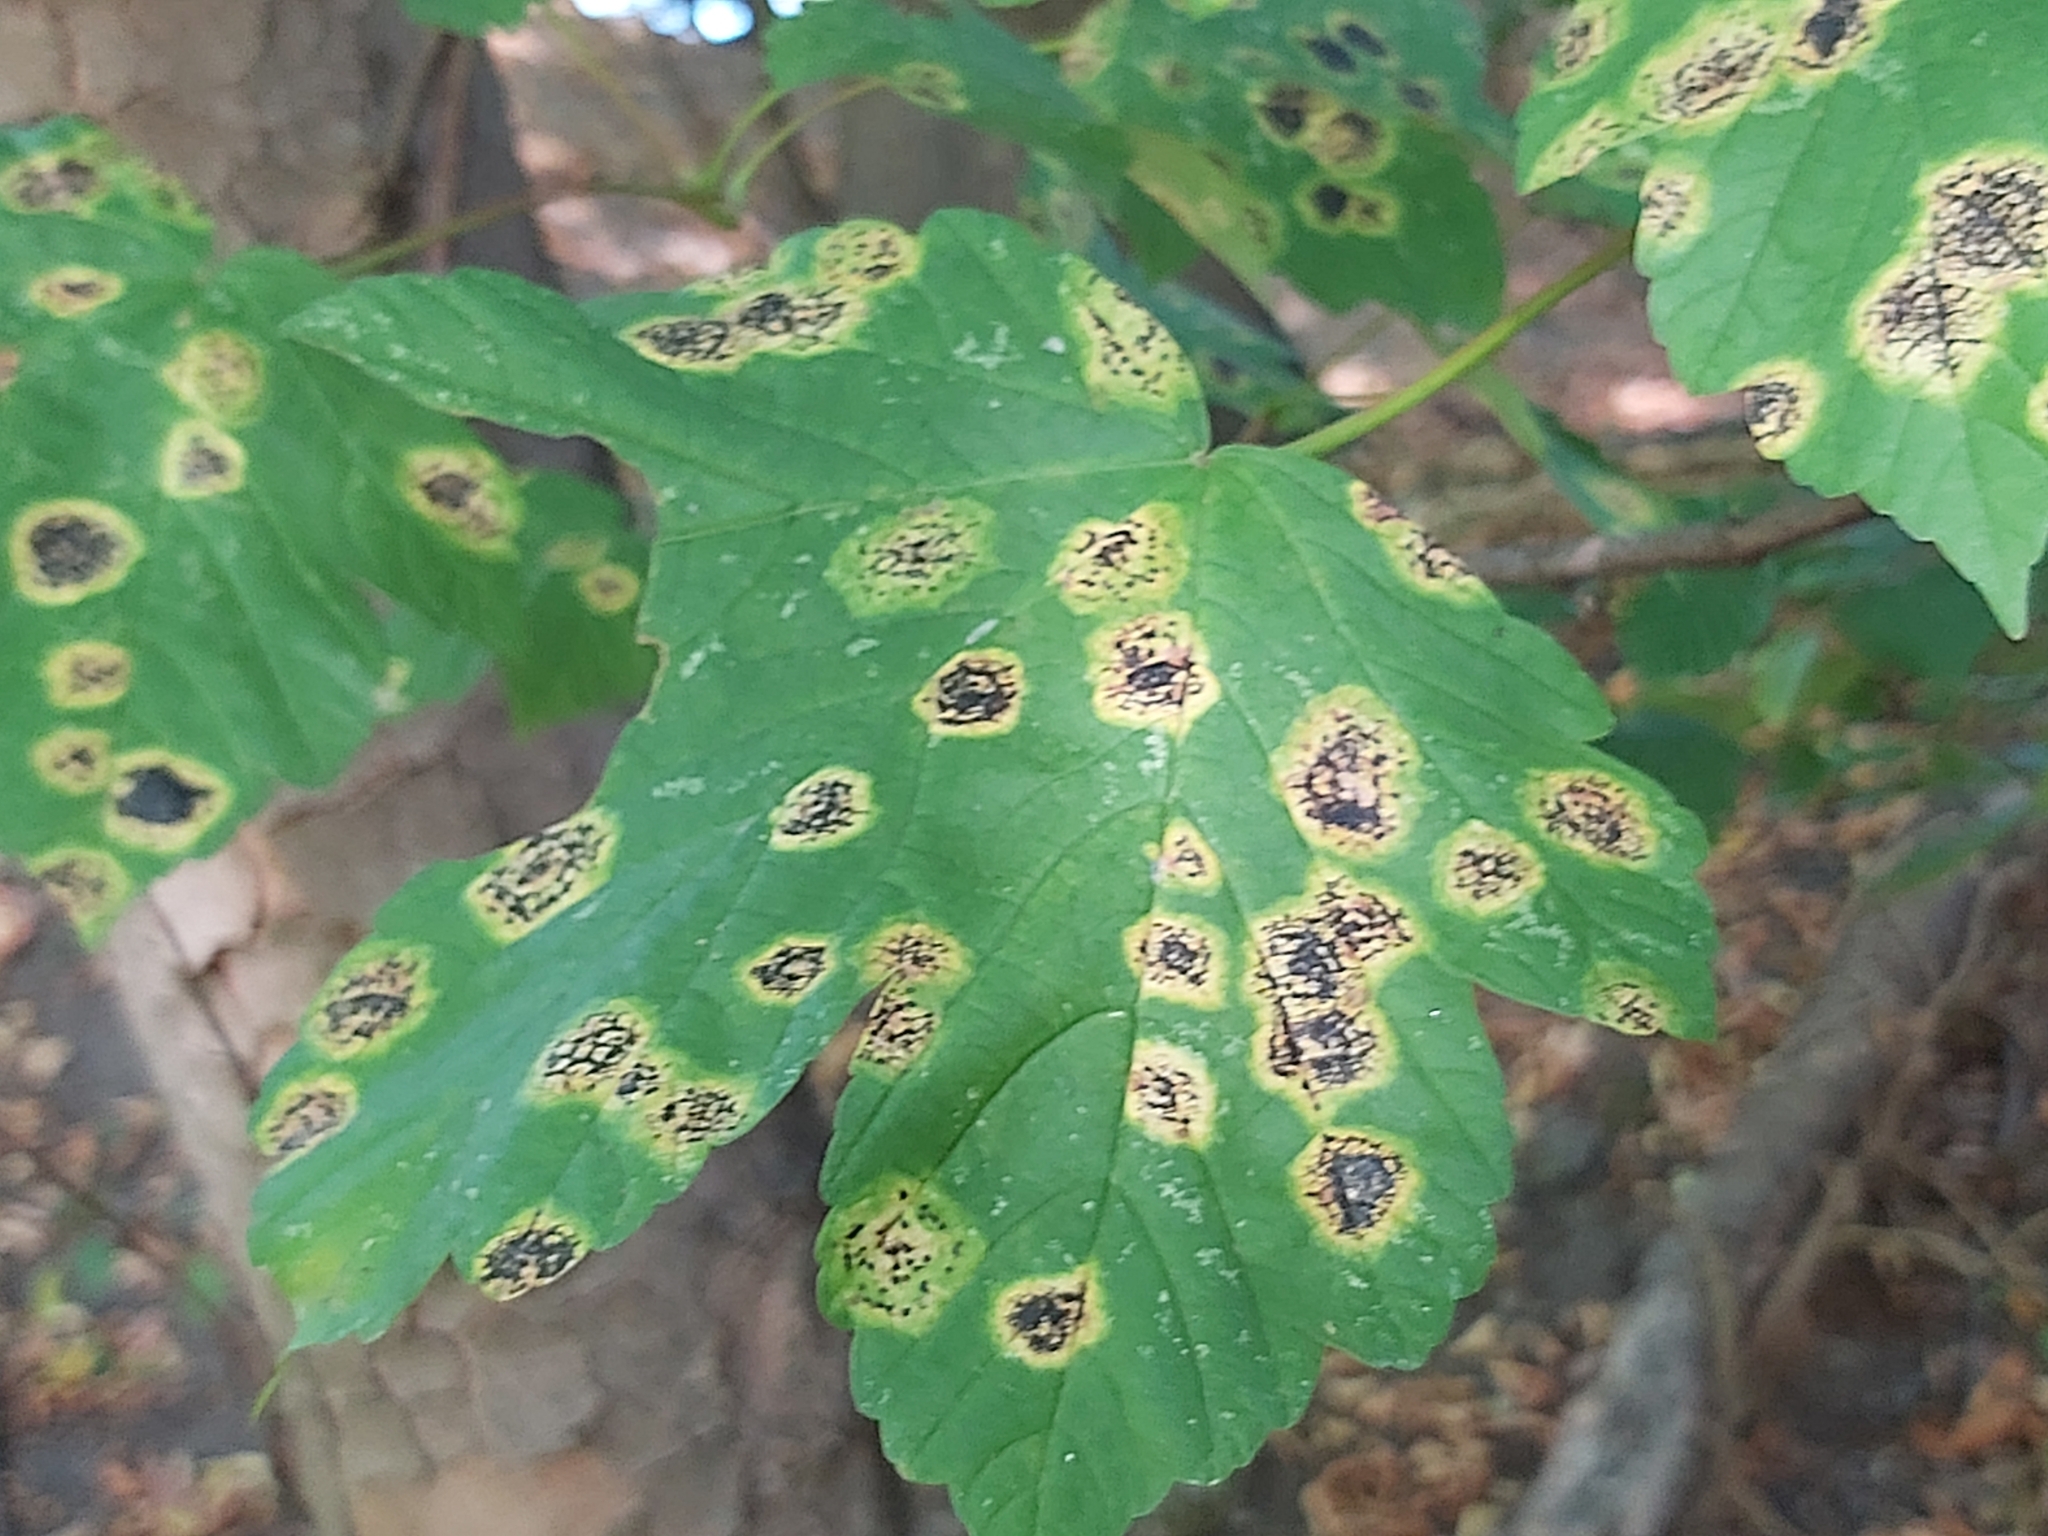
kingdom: Fungi
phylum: Ascomycota
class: Leotiomycetes
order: Rhytismatales
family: Rhytismataceae
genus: Rhytisma
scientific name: Rhytisma acerinum
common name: European tar spot
